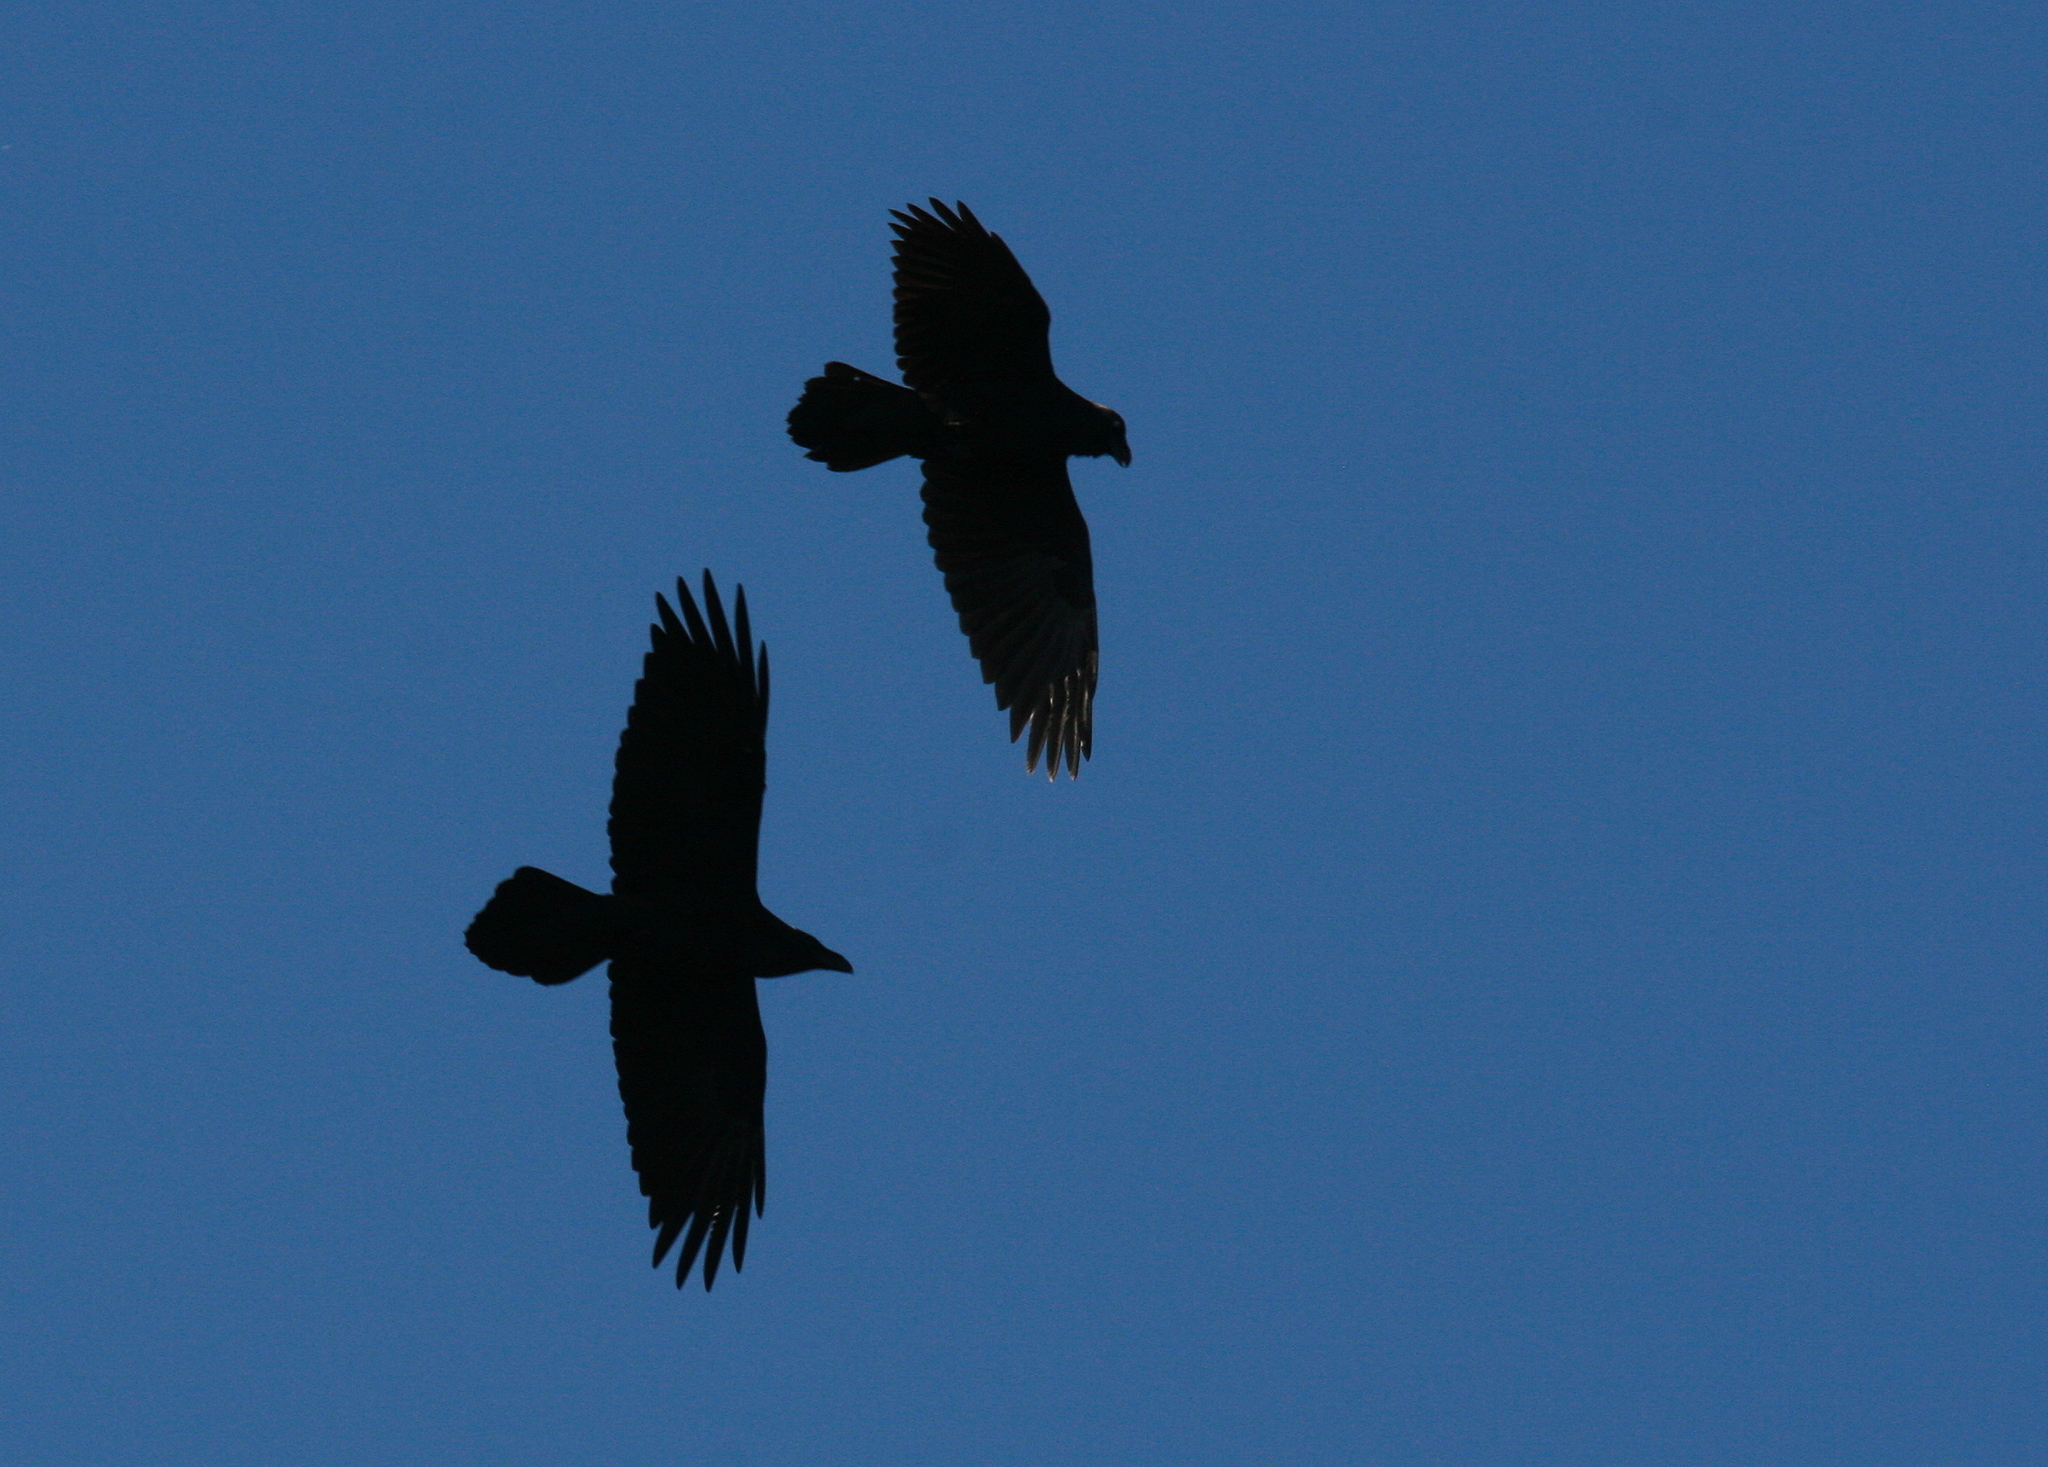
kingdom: Animalia
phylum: Chordata
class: Aves
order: Passeriformes
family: Corvidae
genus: Corvus
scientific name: Corvus corax
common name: Common raven
